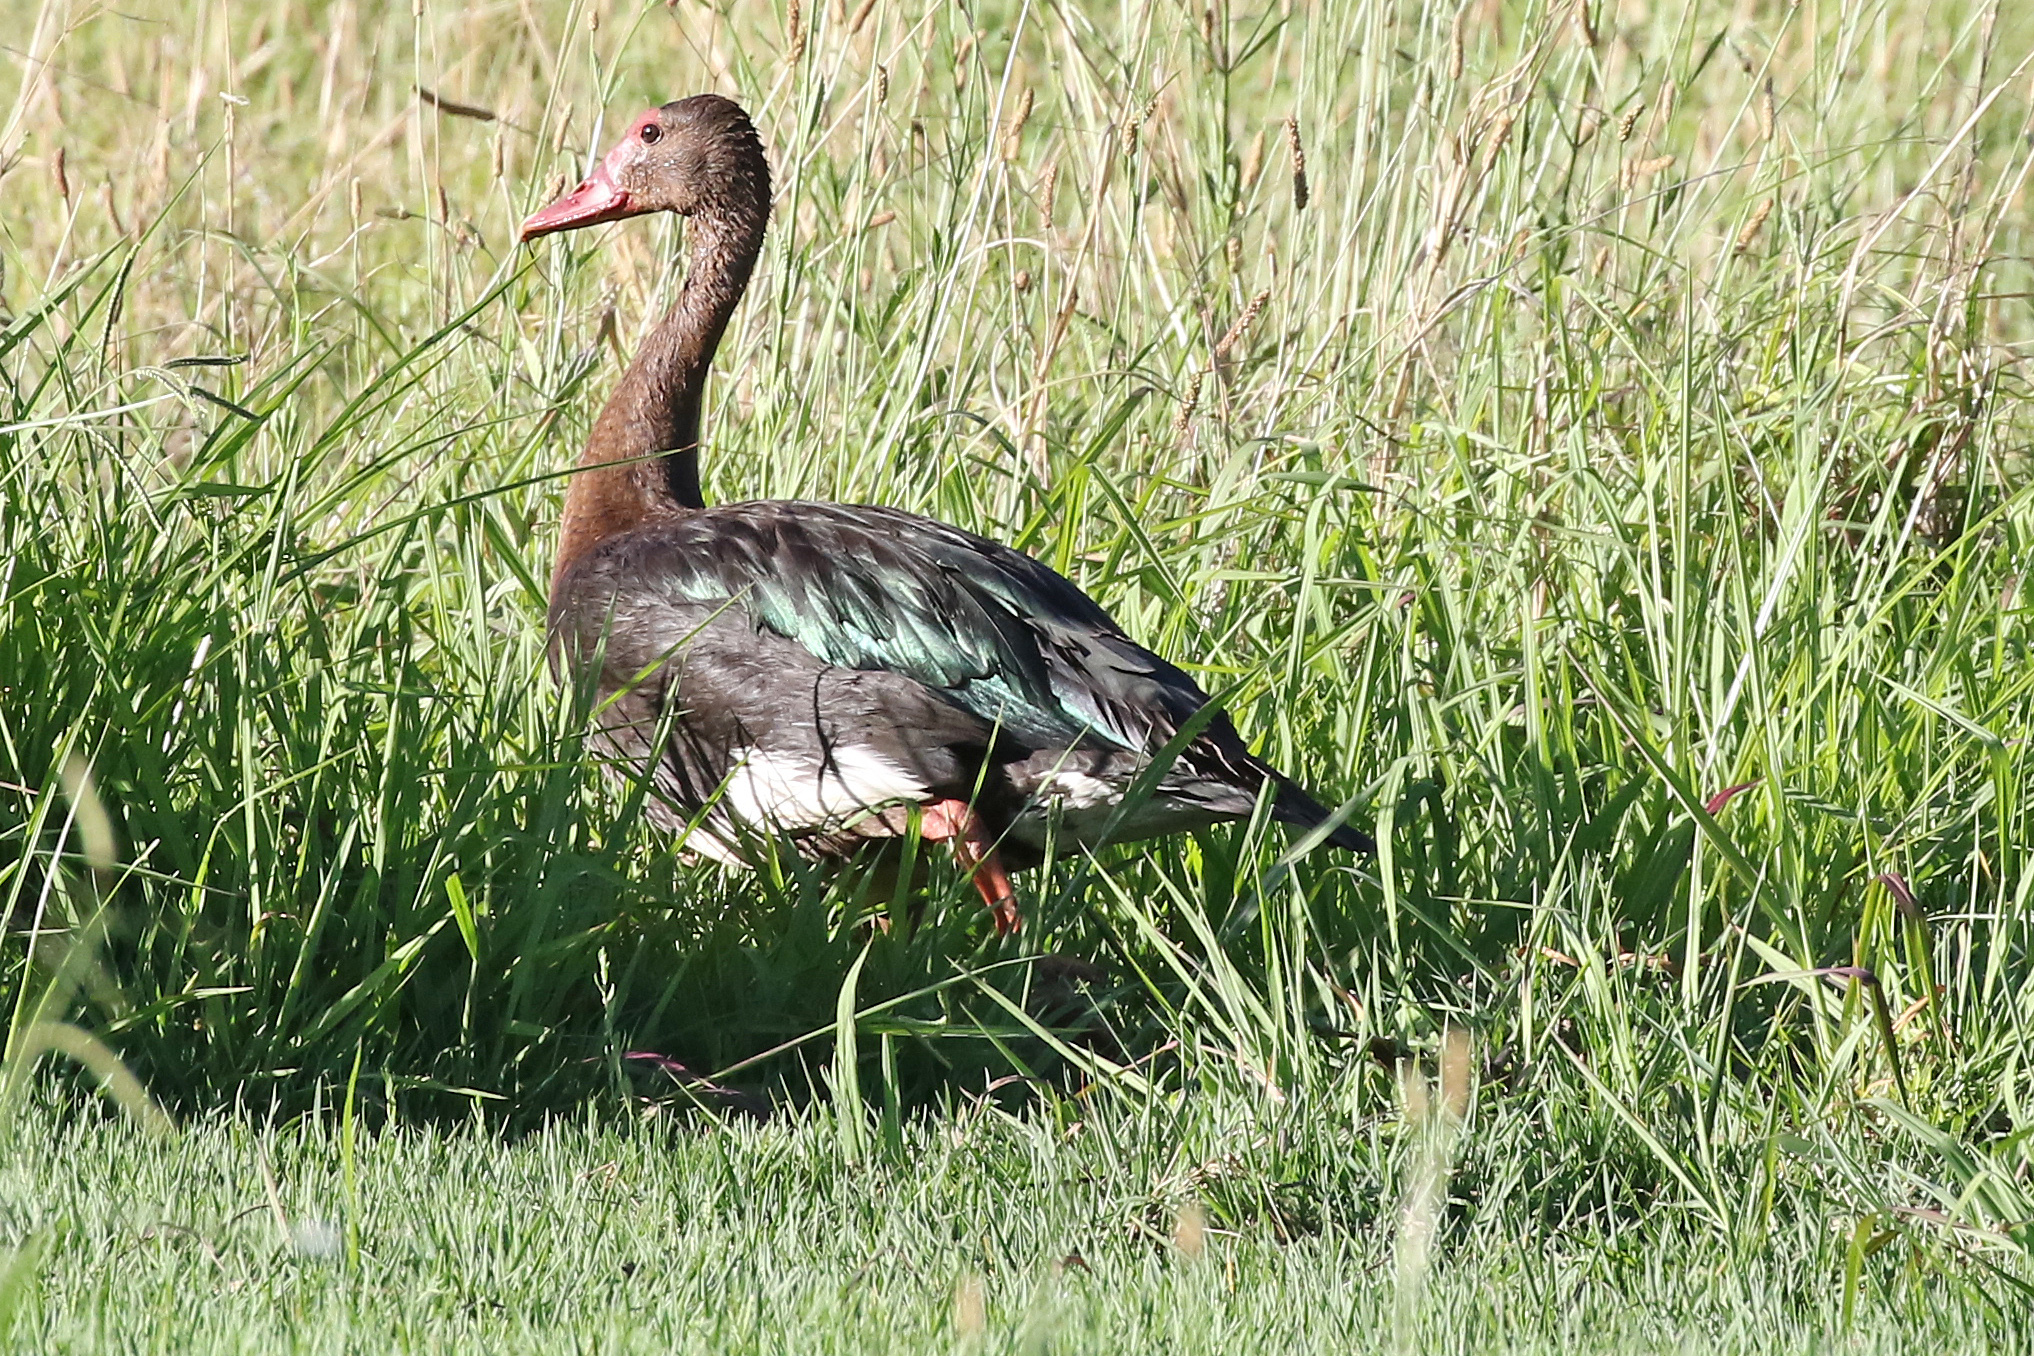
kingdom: Animalia
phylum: Chordata
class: Aves
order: Anseriformes
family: Anatidae
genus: Plectropterus
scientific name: Plectropterus gambensis
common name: Spur-winged goose
